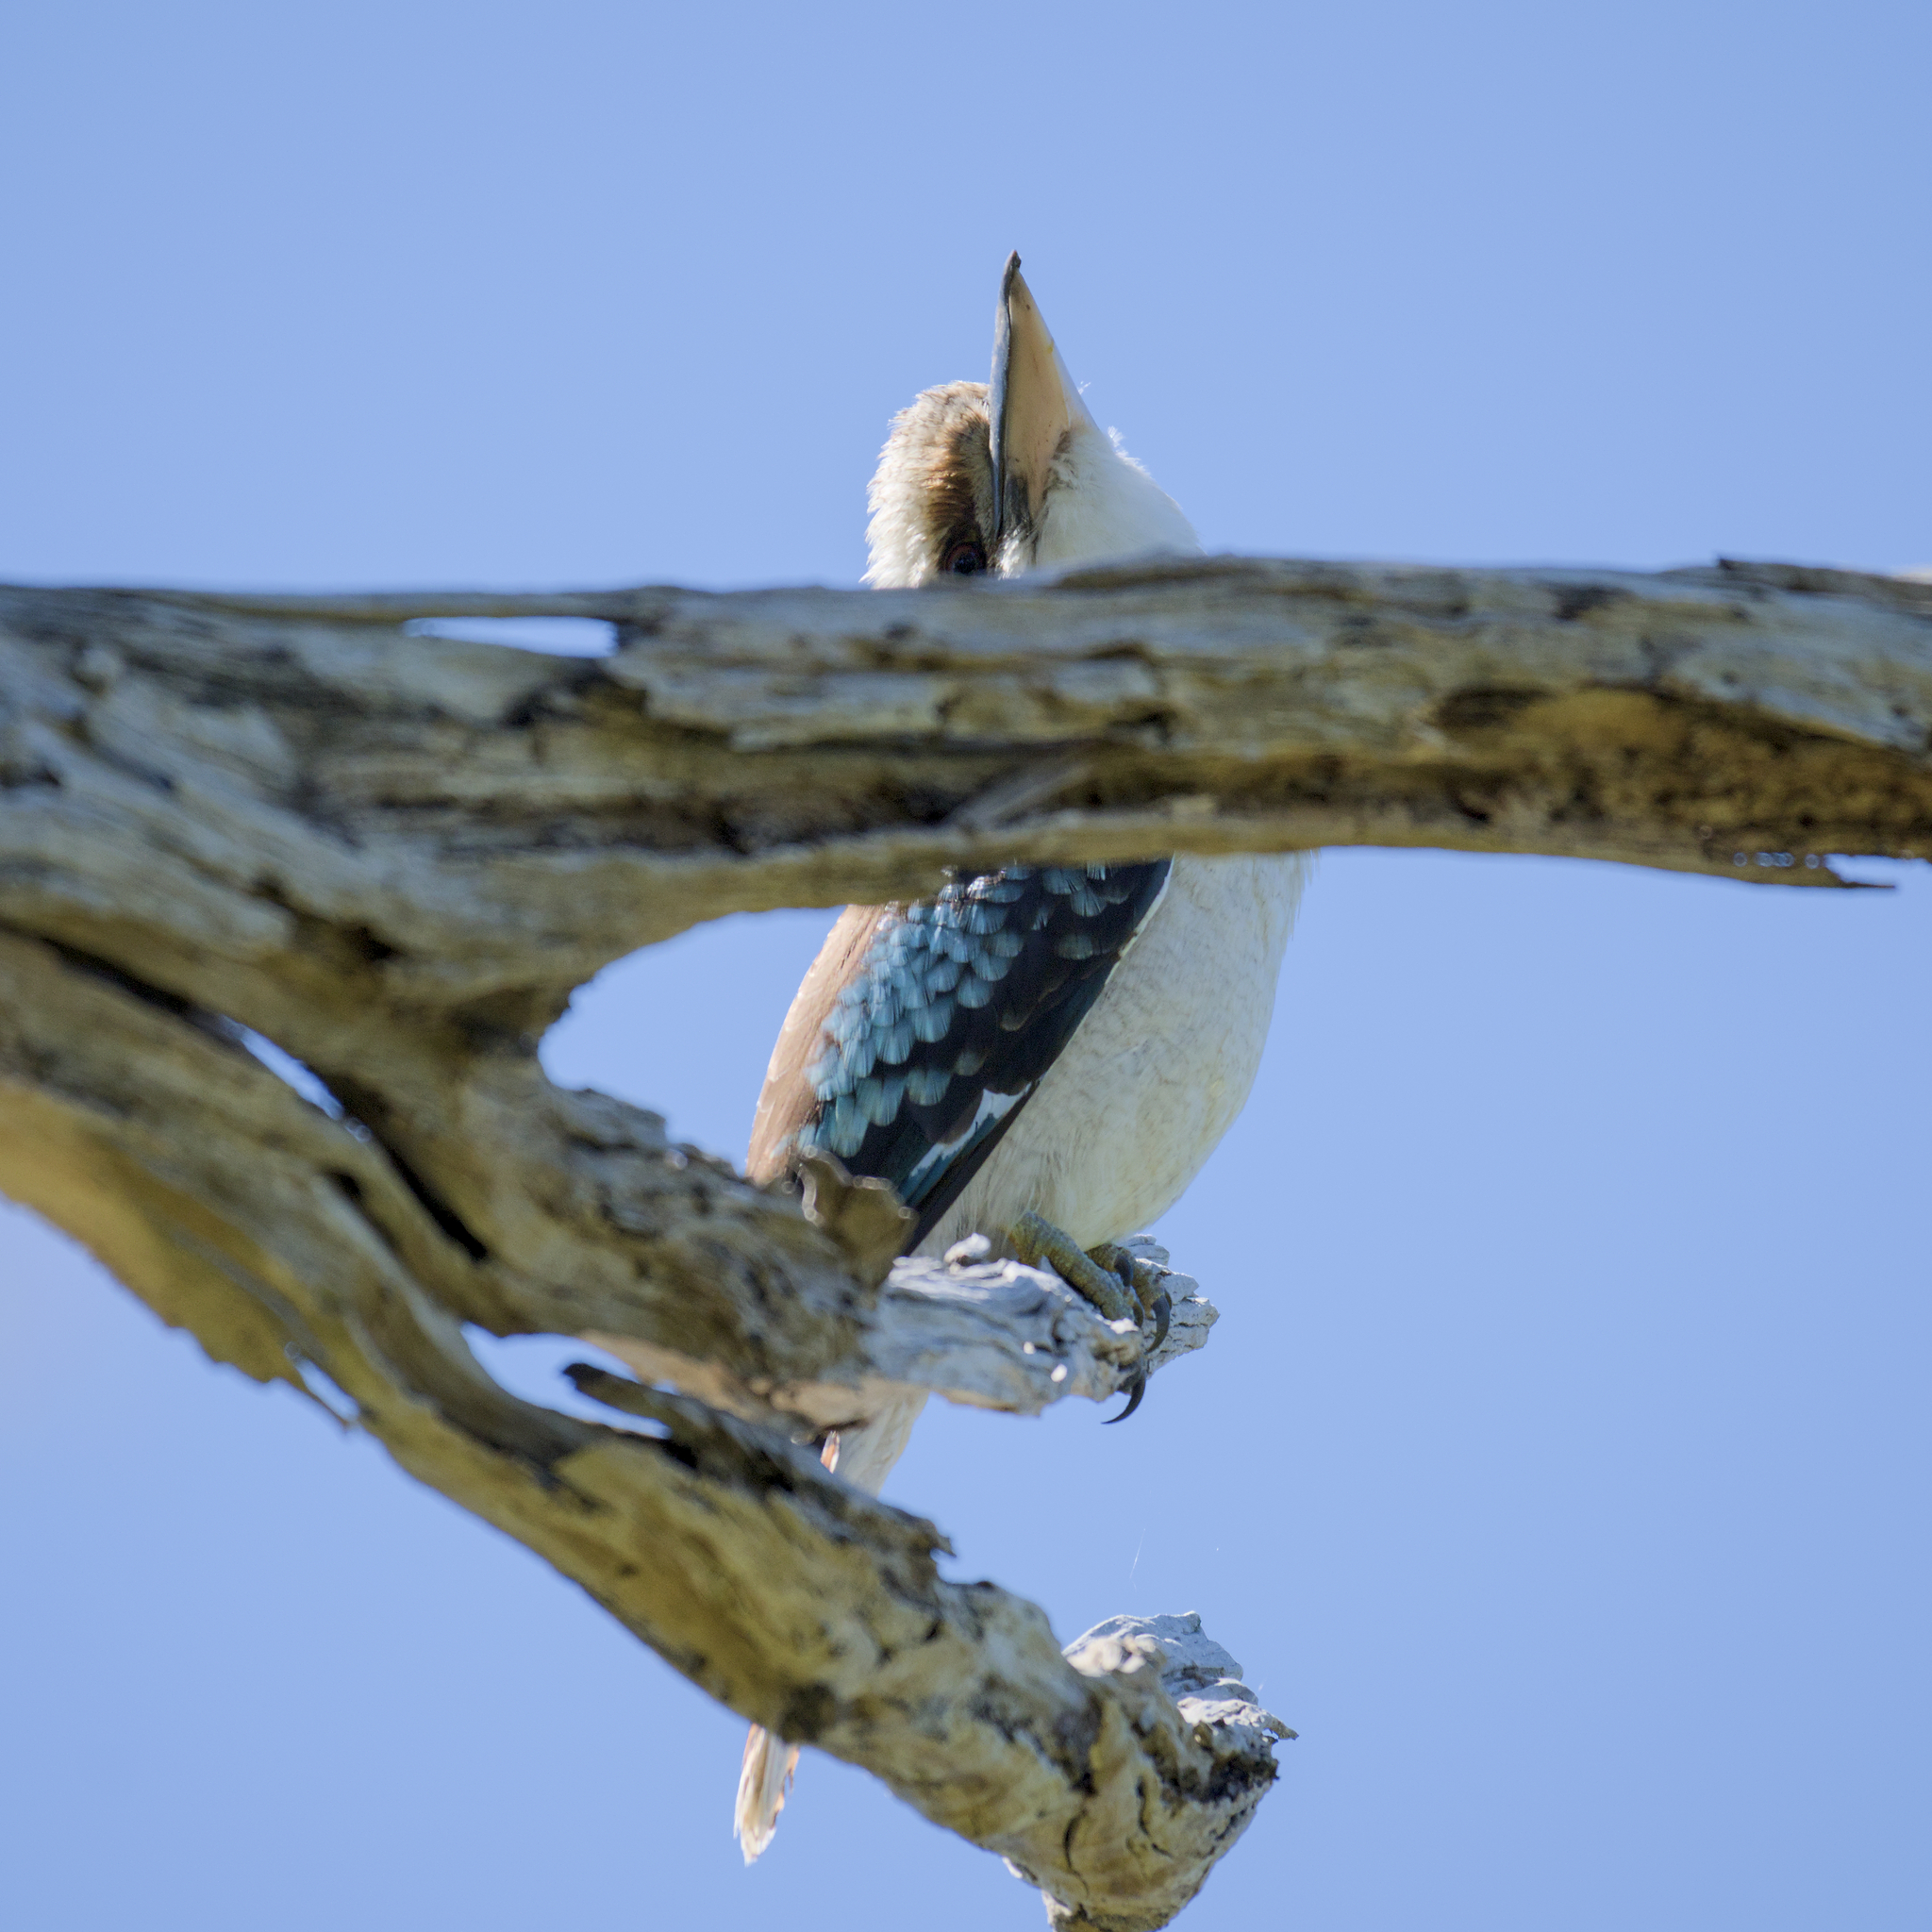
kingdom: Animalia
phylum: Chordata
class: Aves
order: Coraciiformes
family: Alcedinidae
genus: Dacelo
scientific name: Dacelo novaeguineae
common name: Laughing kookaburra
